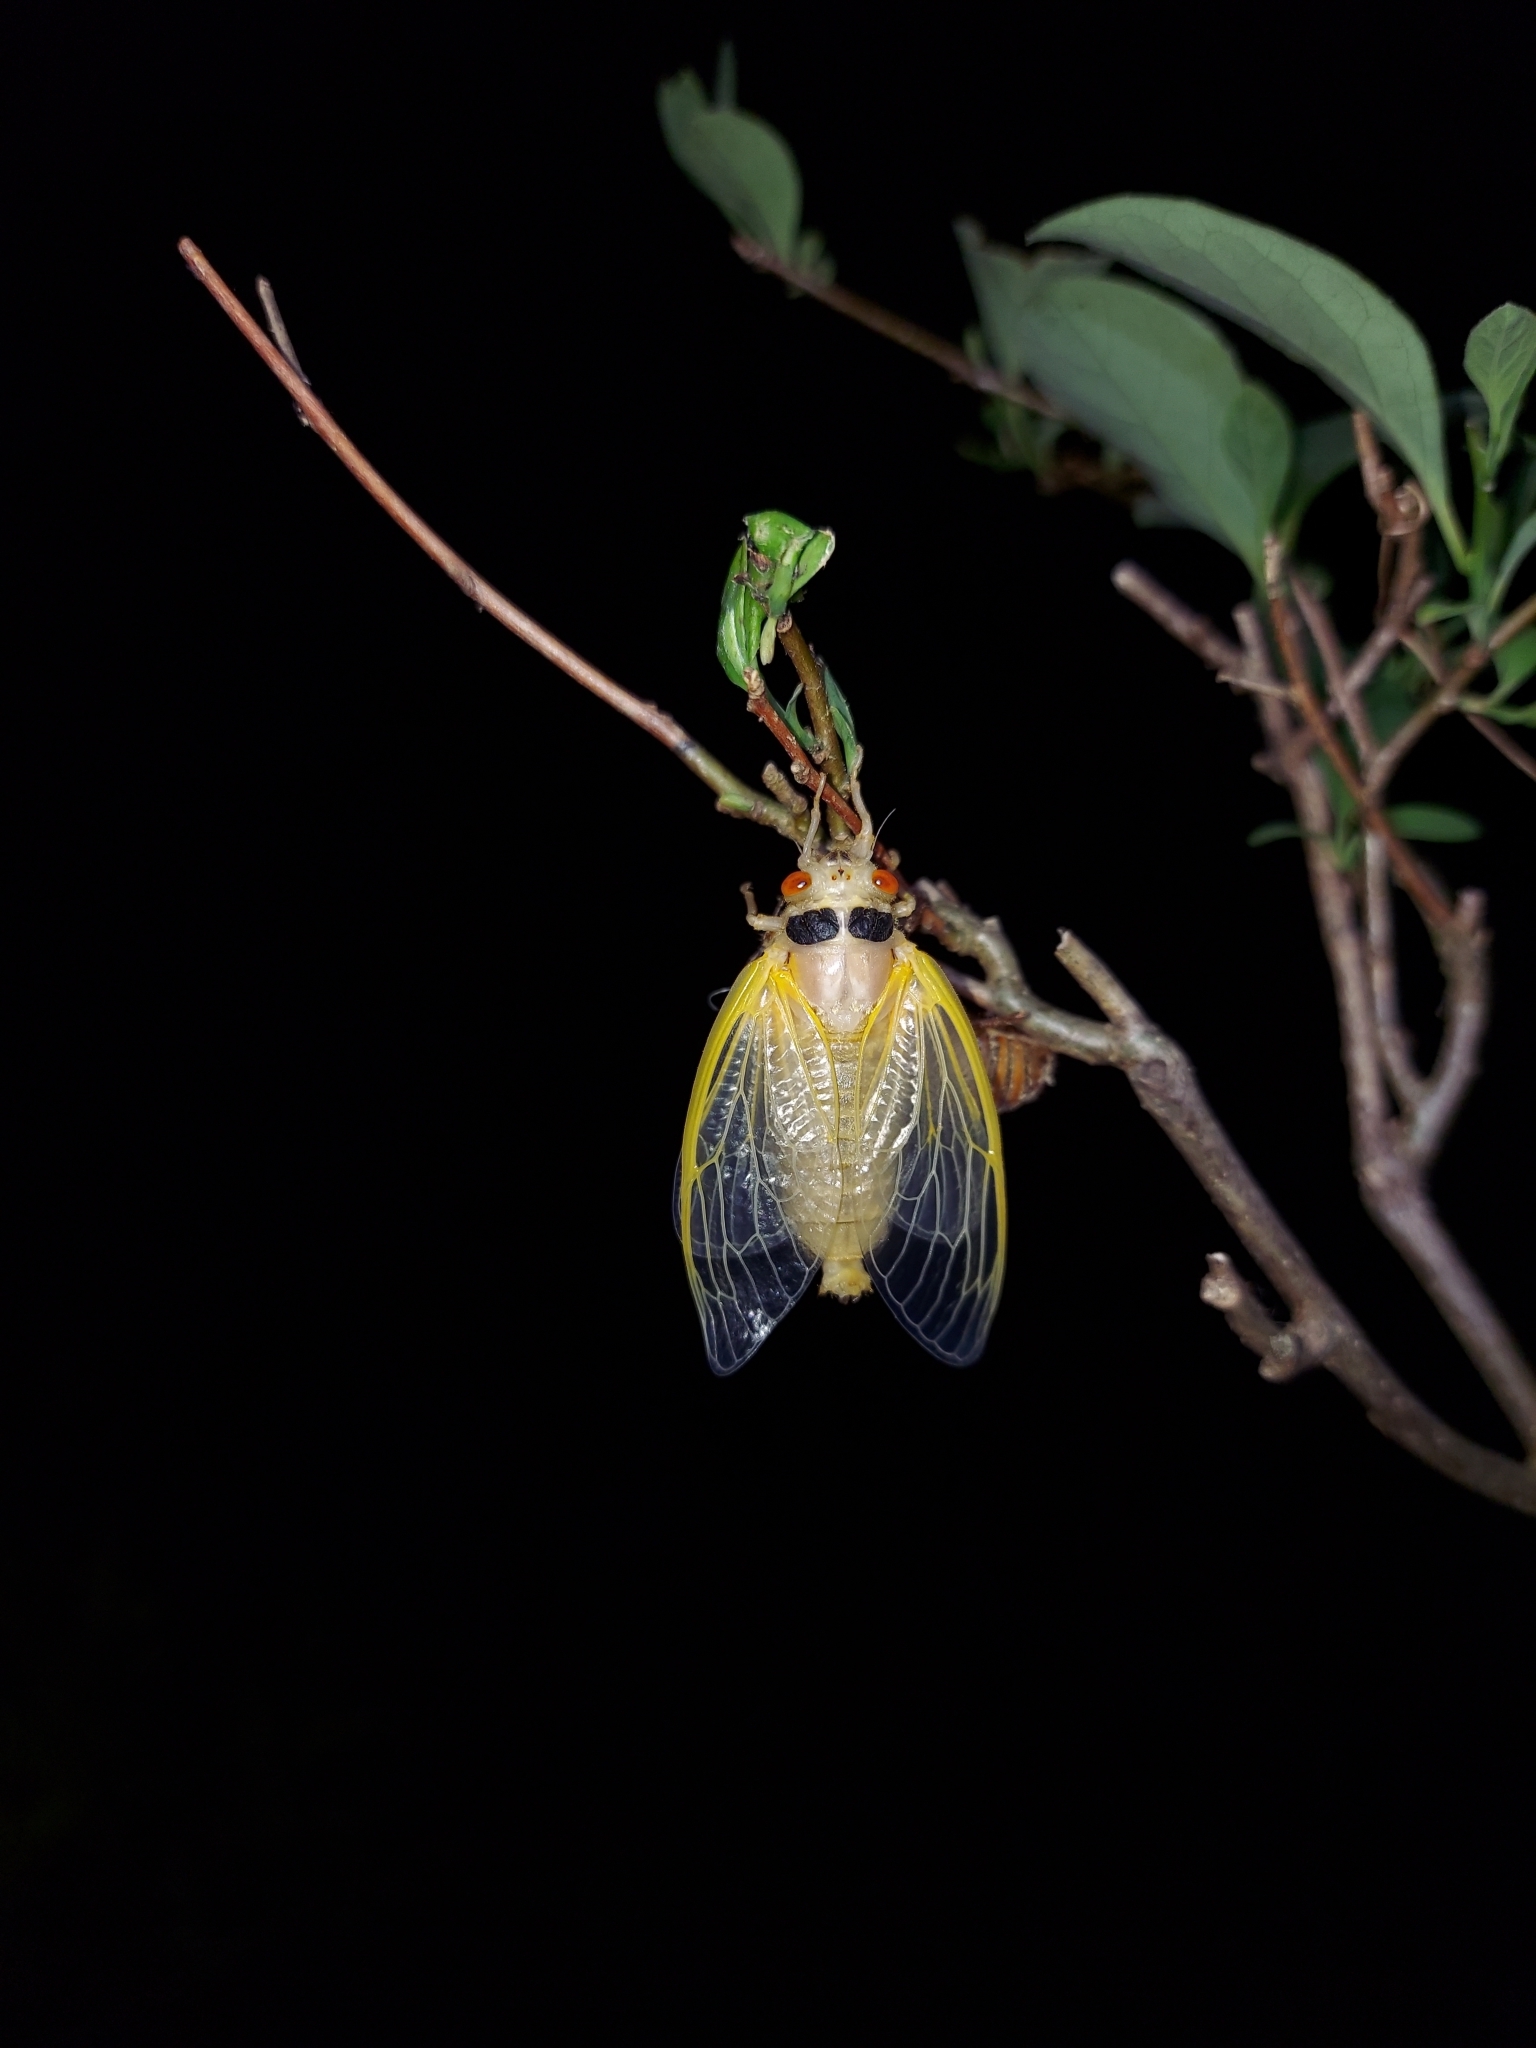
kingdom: Animalia
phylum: Arthropoda
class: Insecta
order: Hemiptera
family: Cicadidae
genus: Magicicada
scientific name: Magicicada
